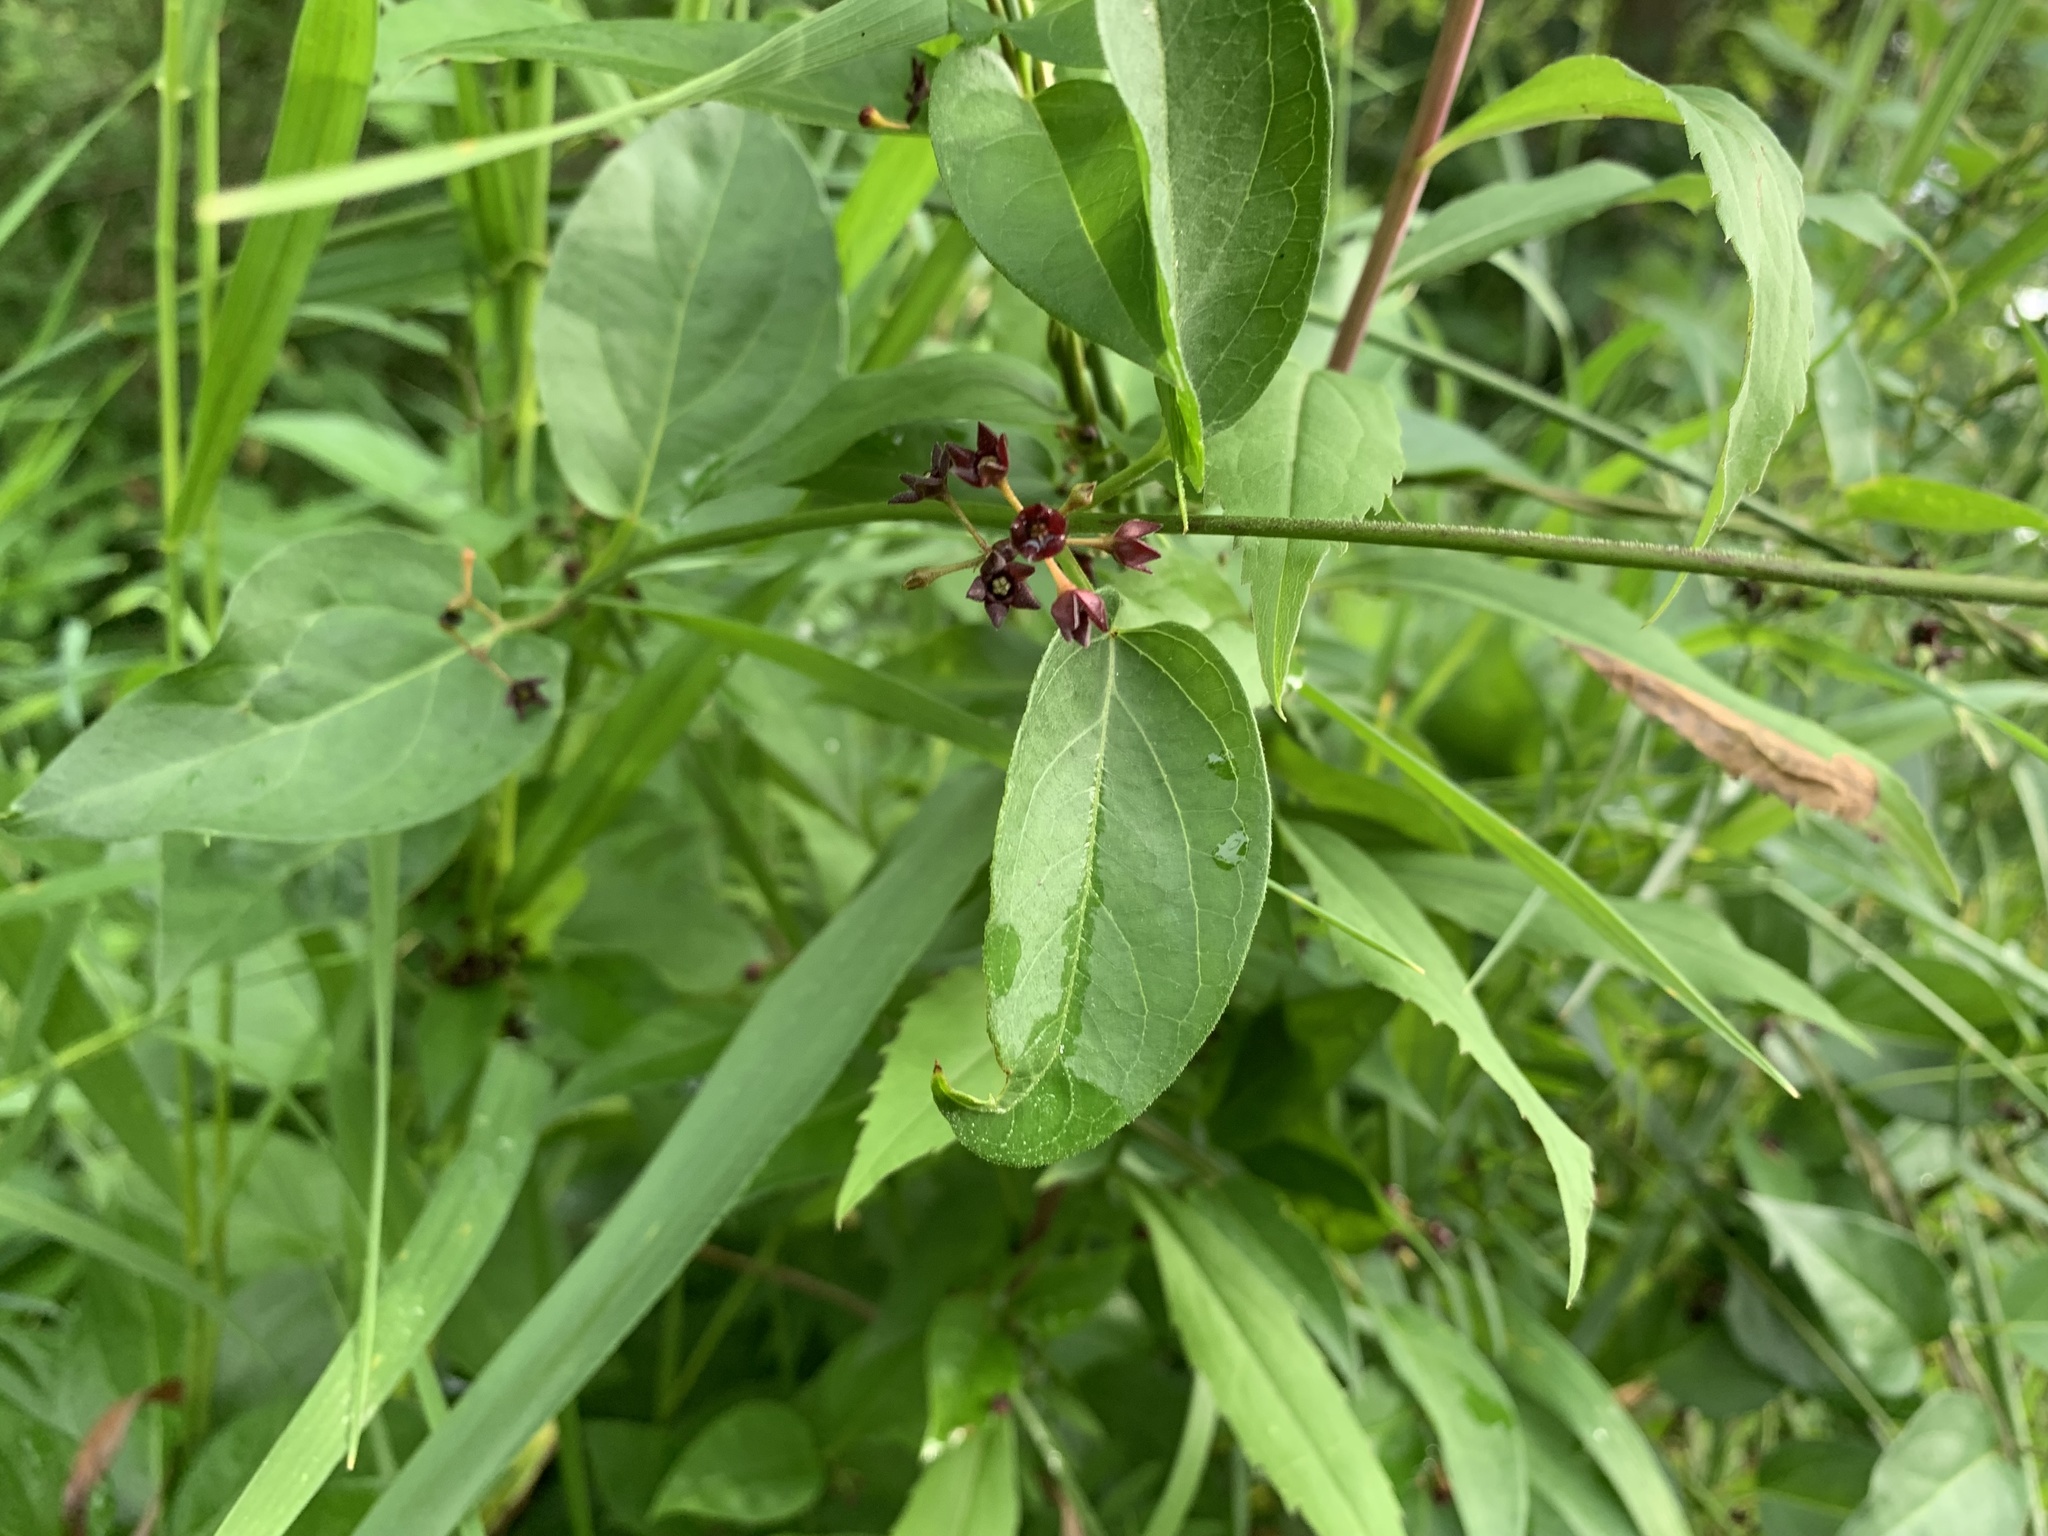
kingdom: Plantae
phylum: Tracheophyta
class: Magnoliopsida
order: Gentianales
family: Apocynaceae
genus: Vincetoxicum
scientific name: Vincetoxicum nigrum
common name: Black swallow-wort
